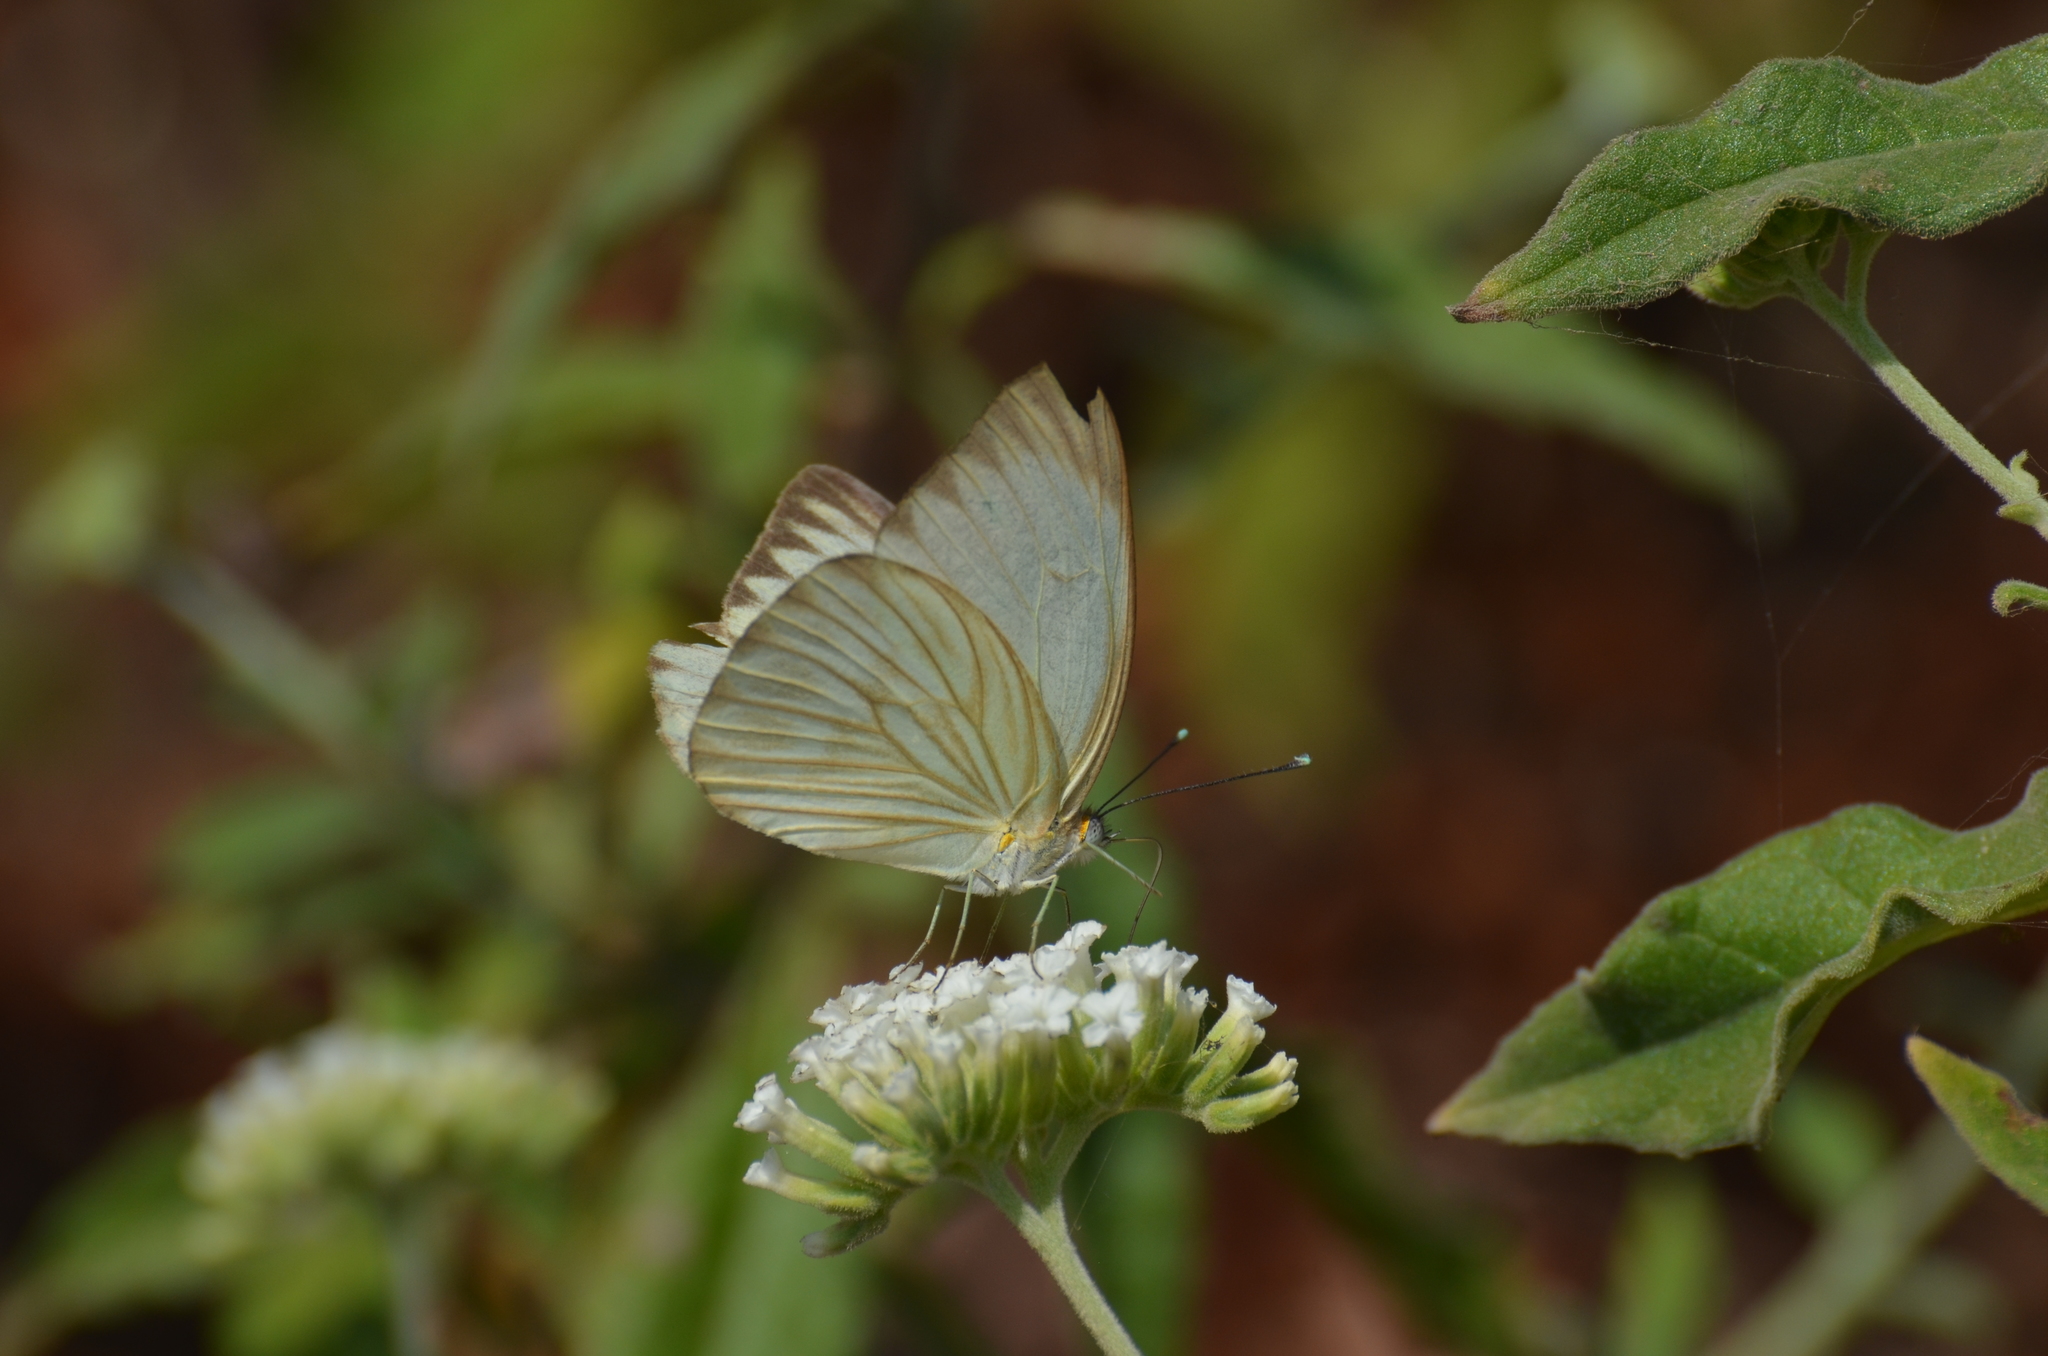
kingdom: Animalia
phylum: Arthropoda
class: Insecta
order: Lepidoptera
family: Pieridae
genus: Ascia
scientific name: Ascia monuste
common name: Great southern white
